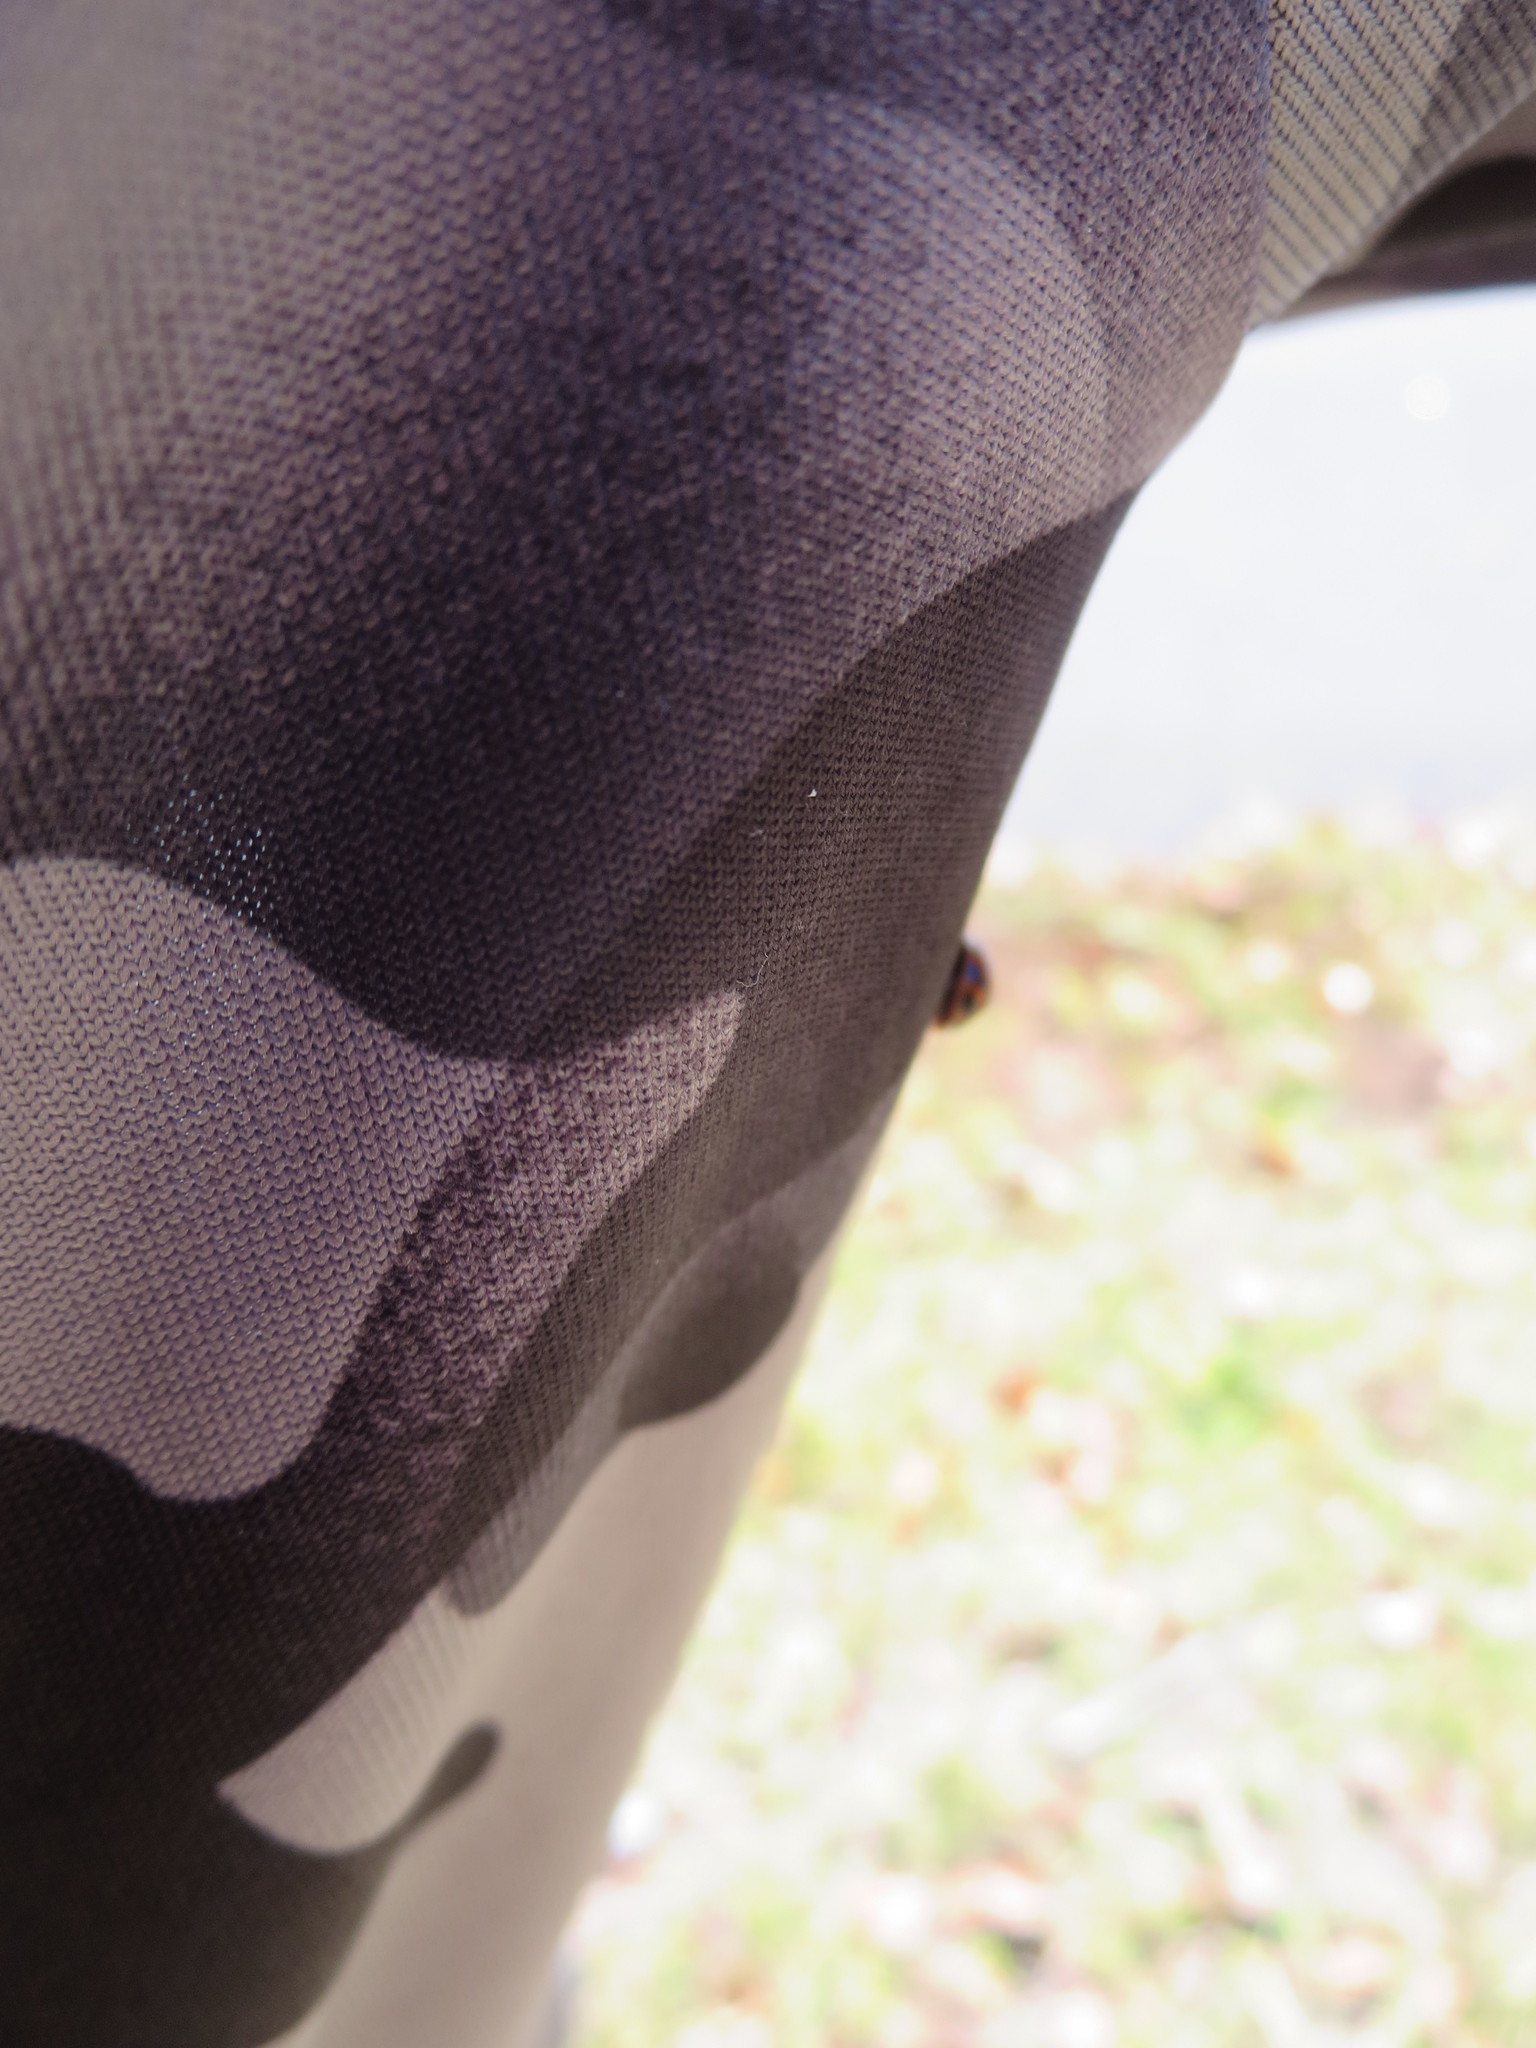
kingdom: Animalia
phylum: Arthropoda
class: Insecta
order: Coleoptera
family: Coccinellidae
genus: Harmonia
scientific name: Harmonia axyridis
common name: Harlequin ladybird
